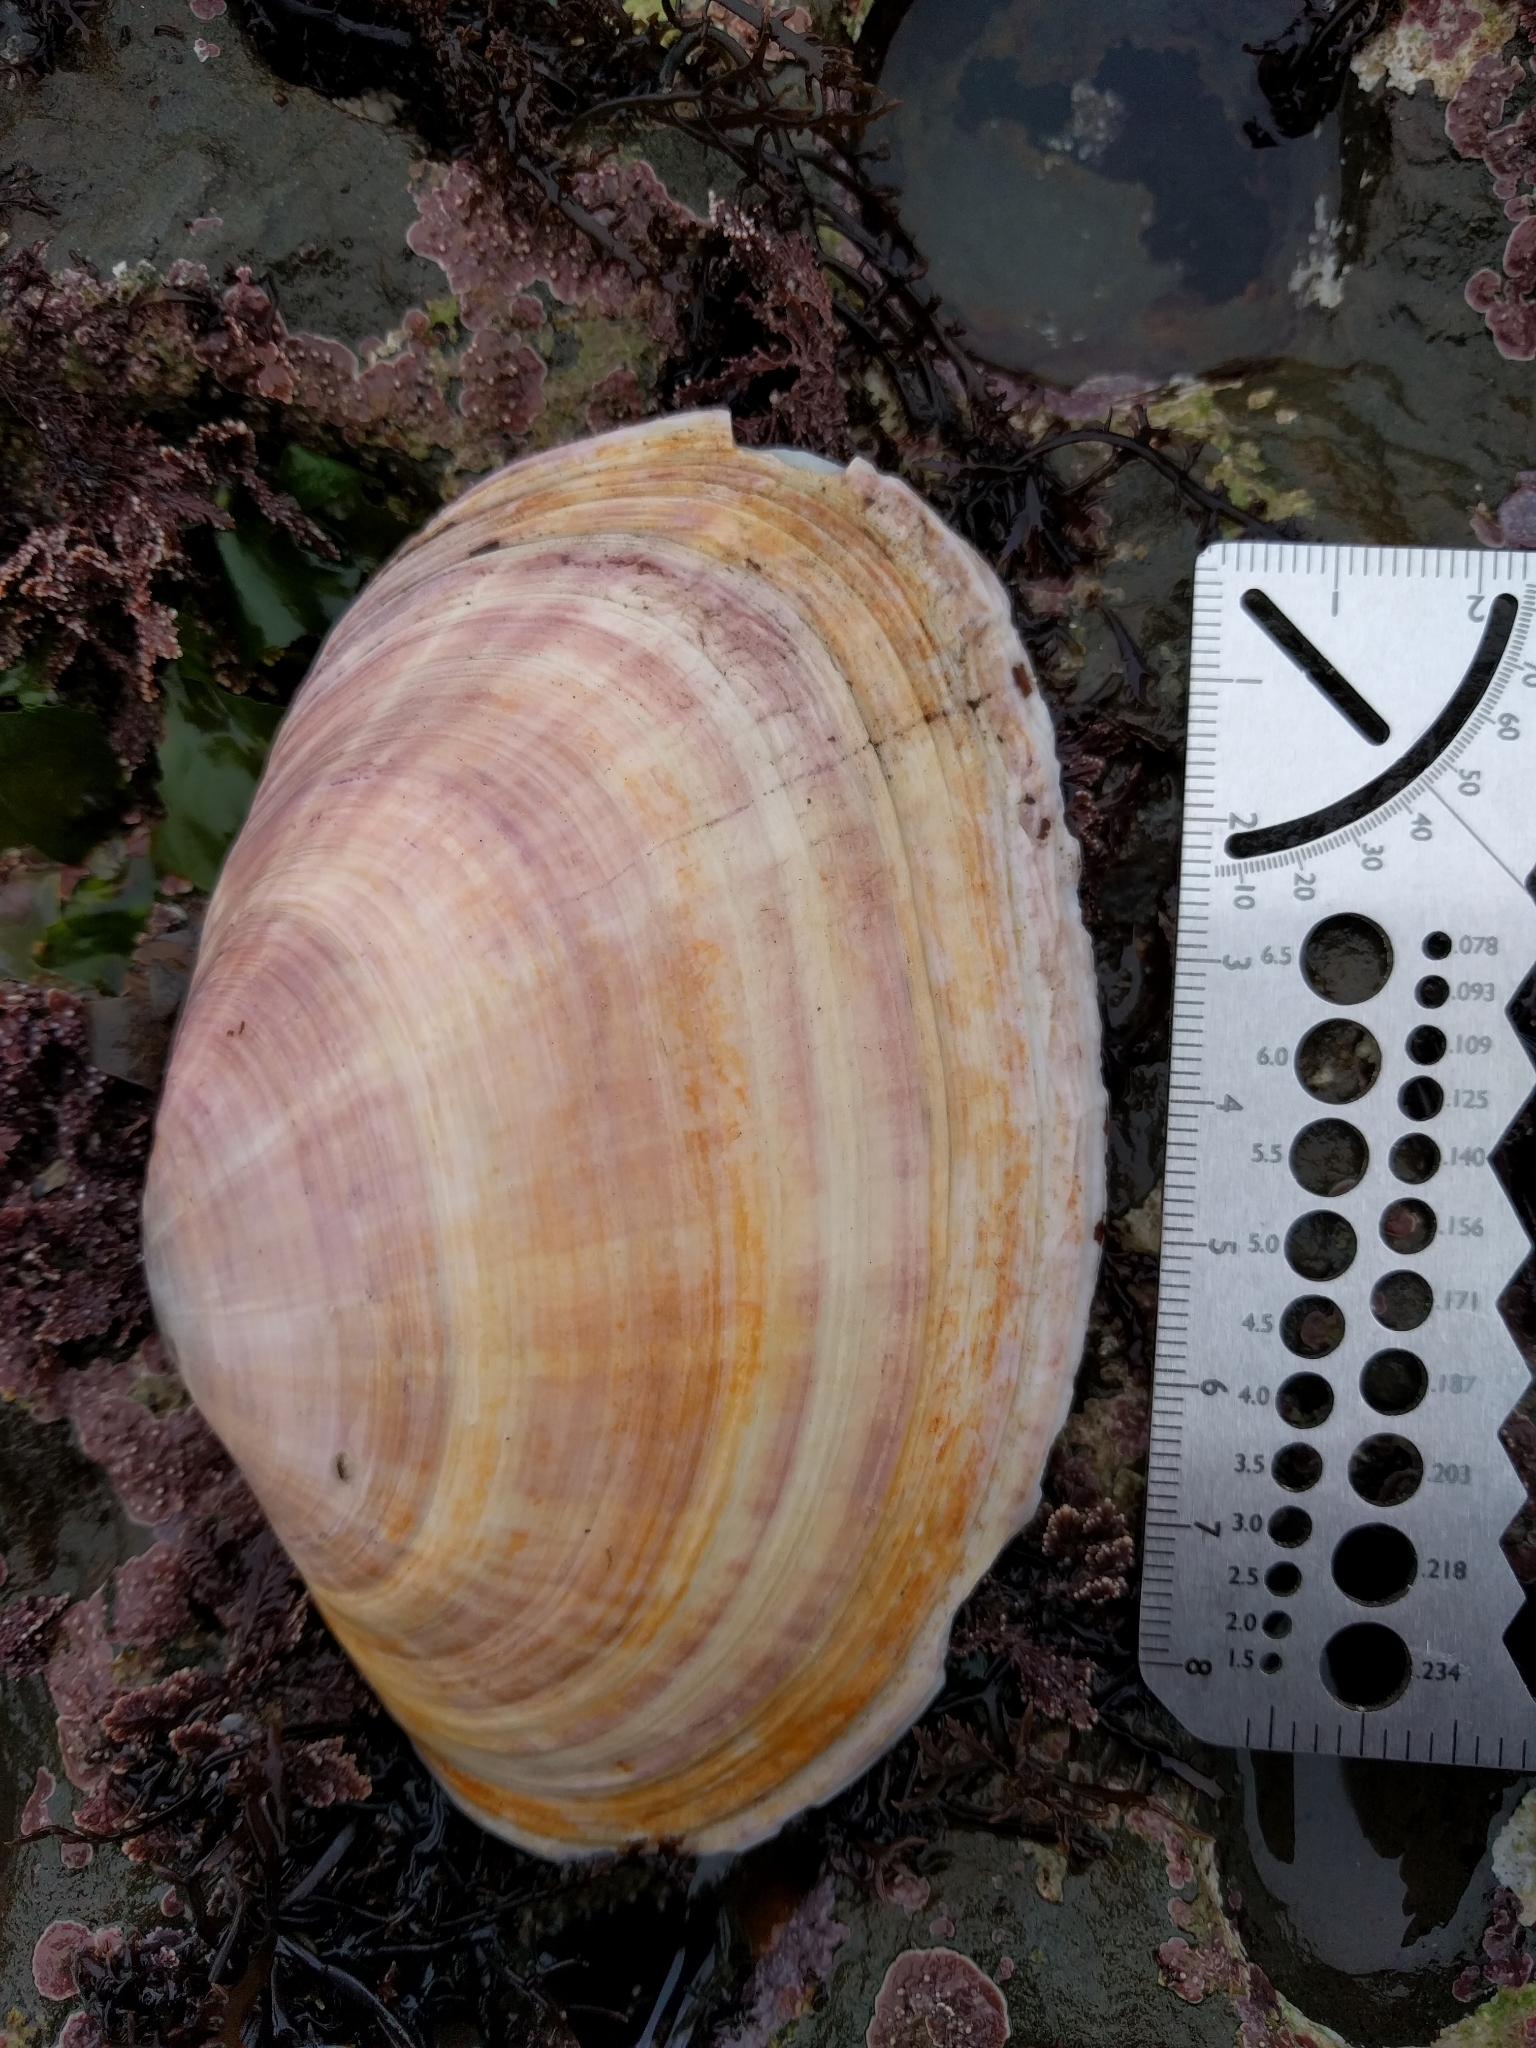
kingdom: Animalia
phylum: Mollusca
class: Bivalvia
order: Cardiida
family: Psammobiidae
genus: Gari
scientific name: Gari californica
